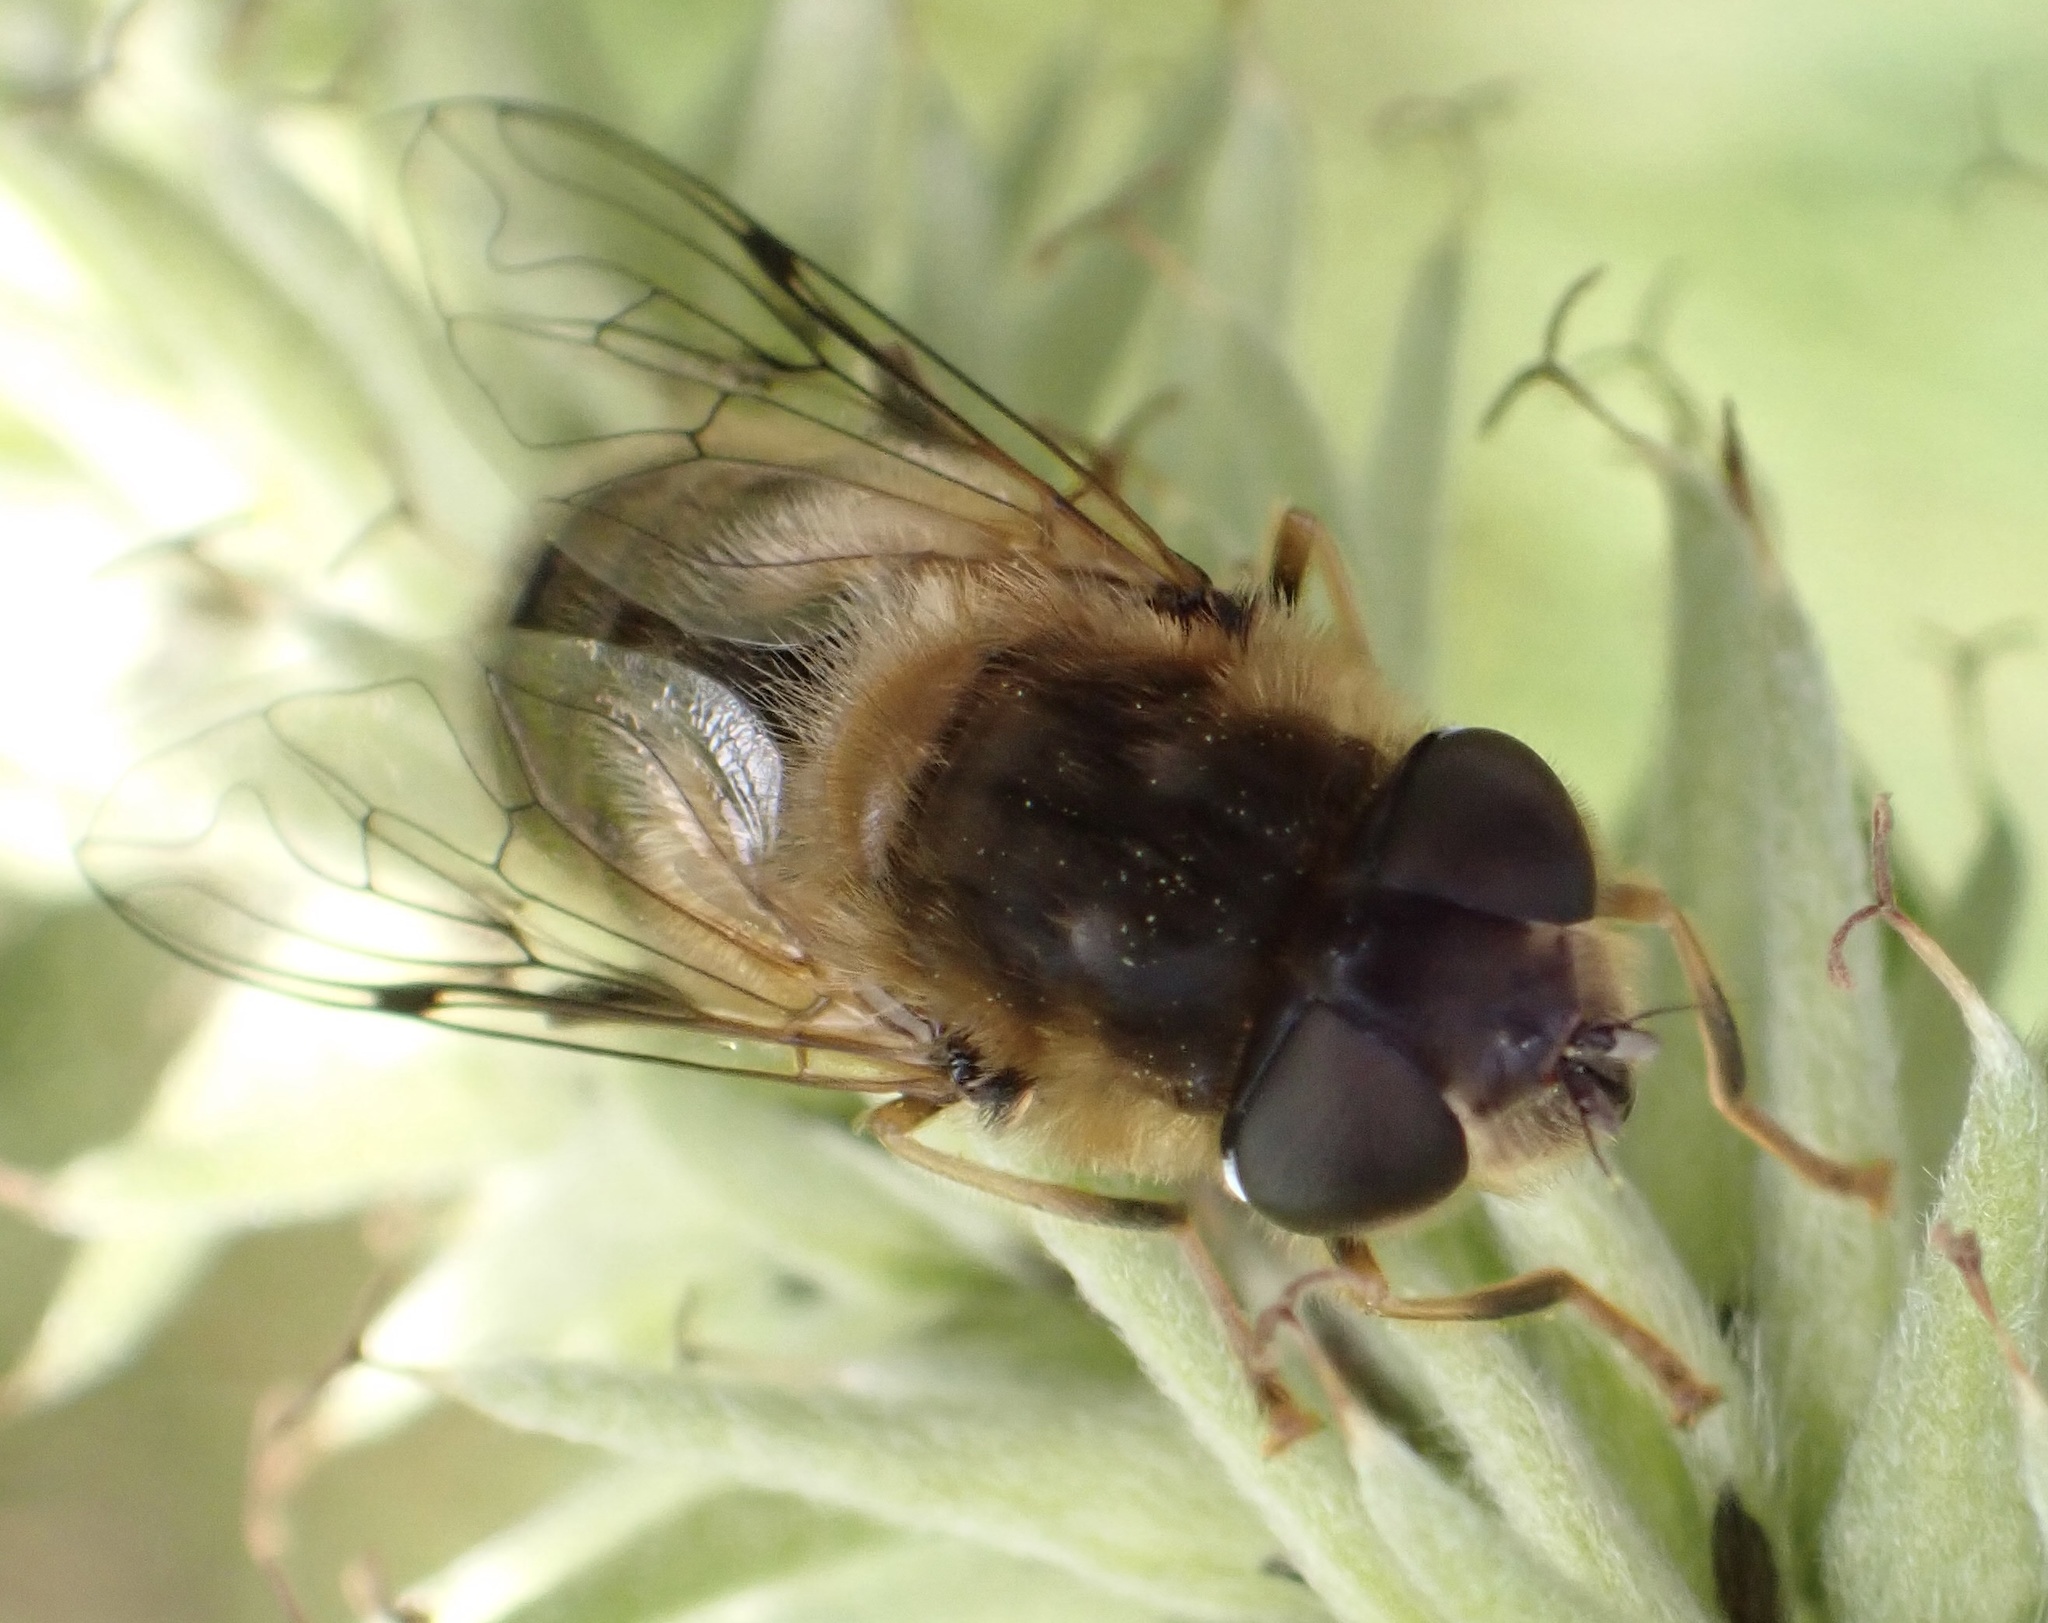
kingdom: Animalia
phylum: Arthropoda
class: Insecta
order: Diptera
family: Syrphidae
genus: Eristalis
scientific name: Eristalis pertinax
